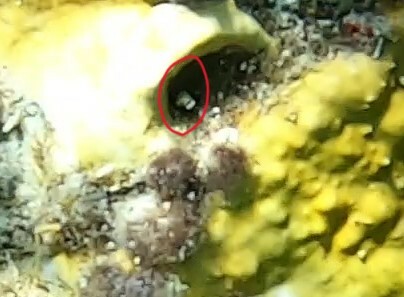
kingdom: Animalia
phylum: Chordata
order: Perciformes
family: Chaenopsidae
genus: Acanthemblemaria
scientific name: Acanthemblemaria spinosa
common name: Spinyhead blenny
